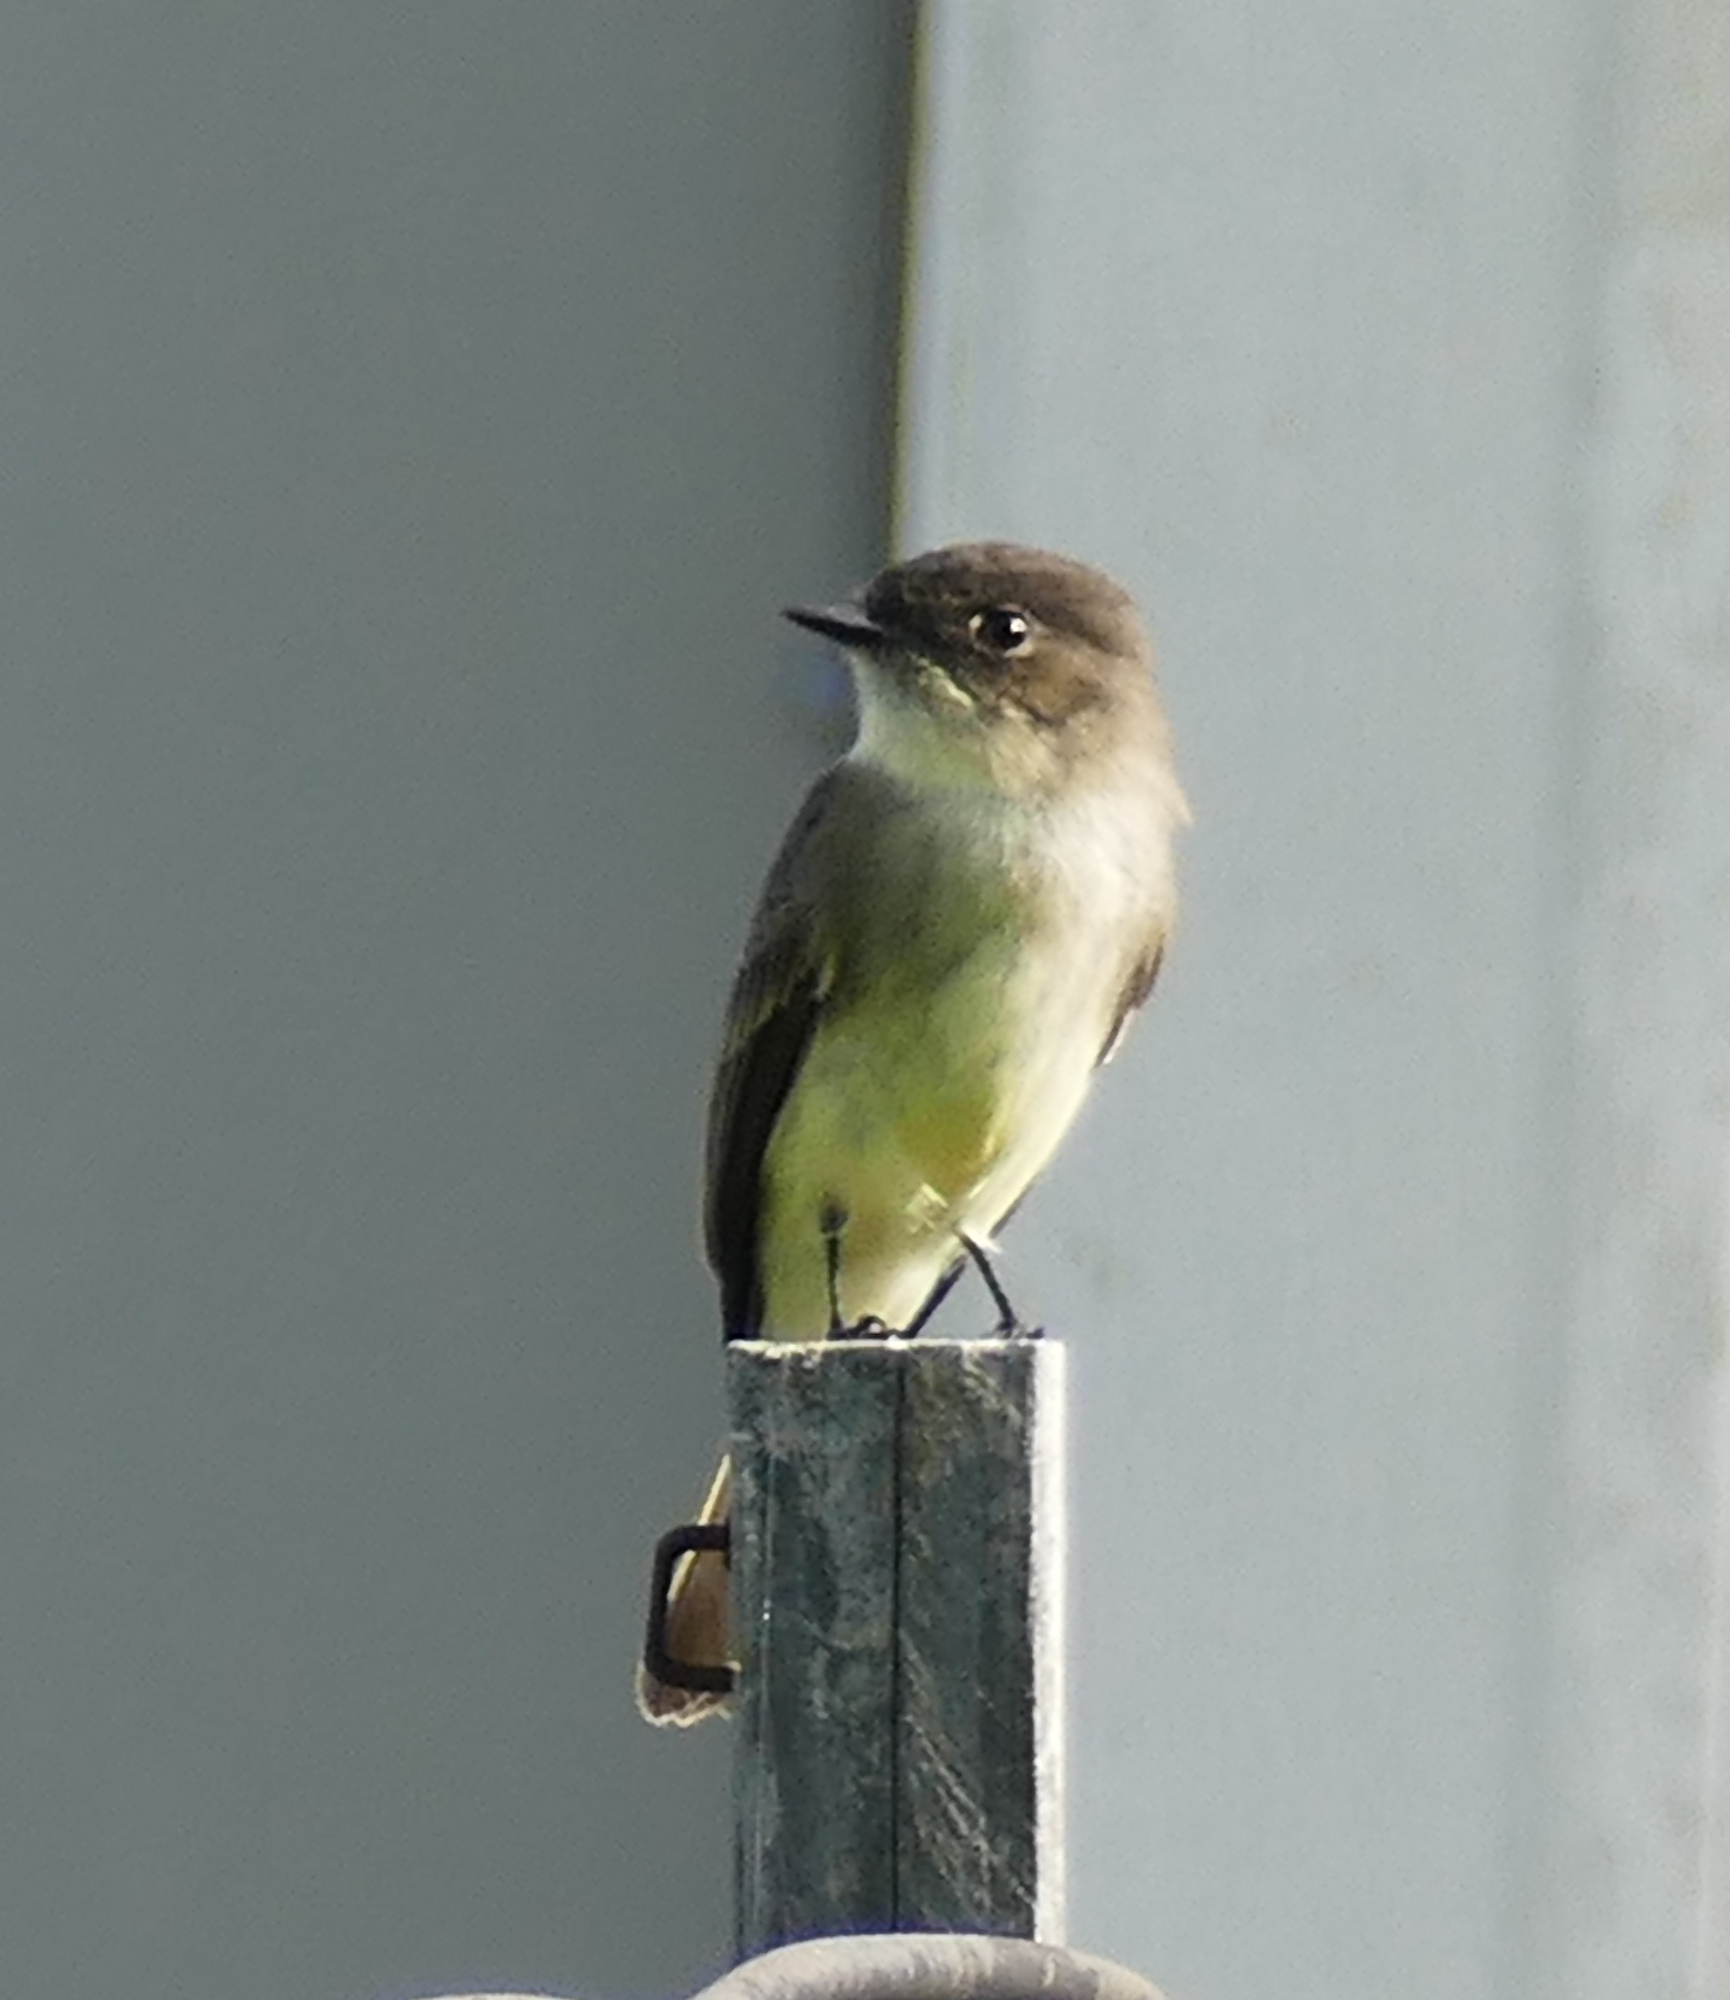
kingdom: Animalia
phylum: Chordata
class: Aves
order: Passeriformes
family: Tyrannidae
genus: Sayornis
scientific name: Sayornis phoebe
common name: Eastern phoebe
